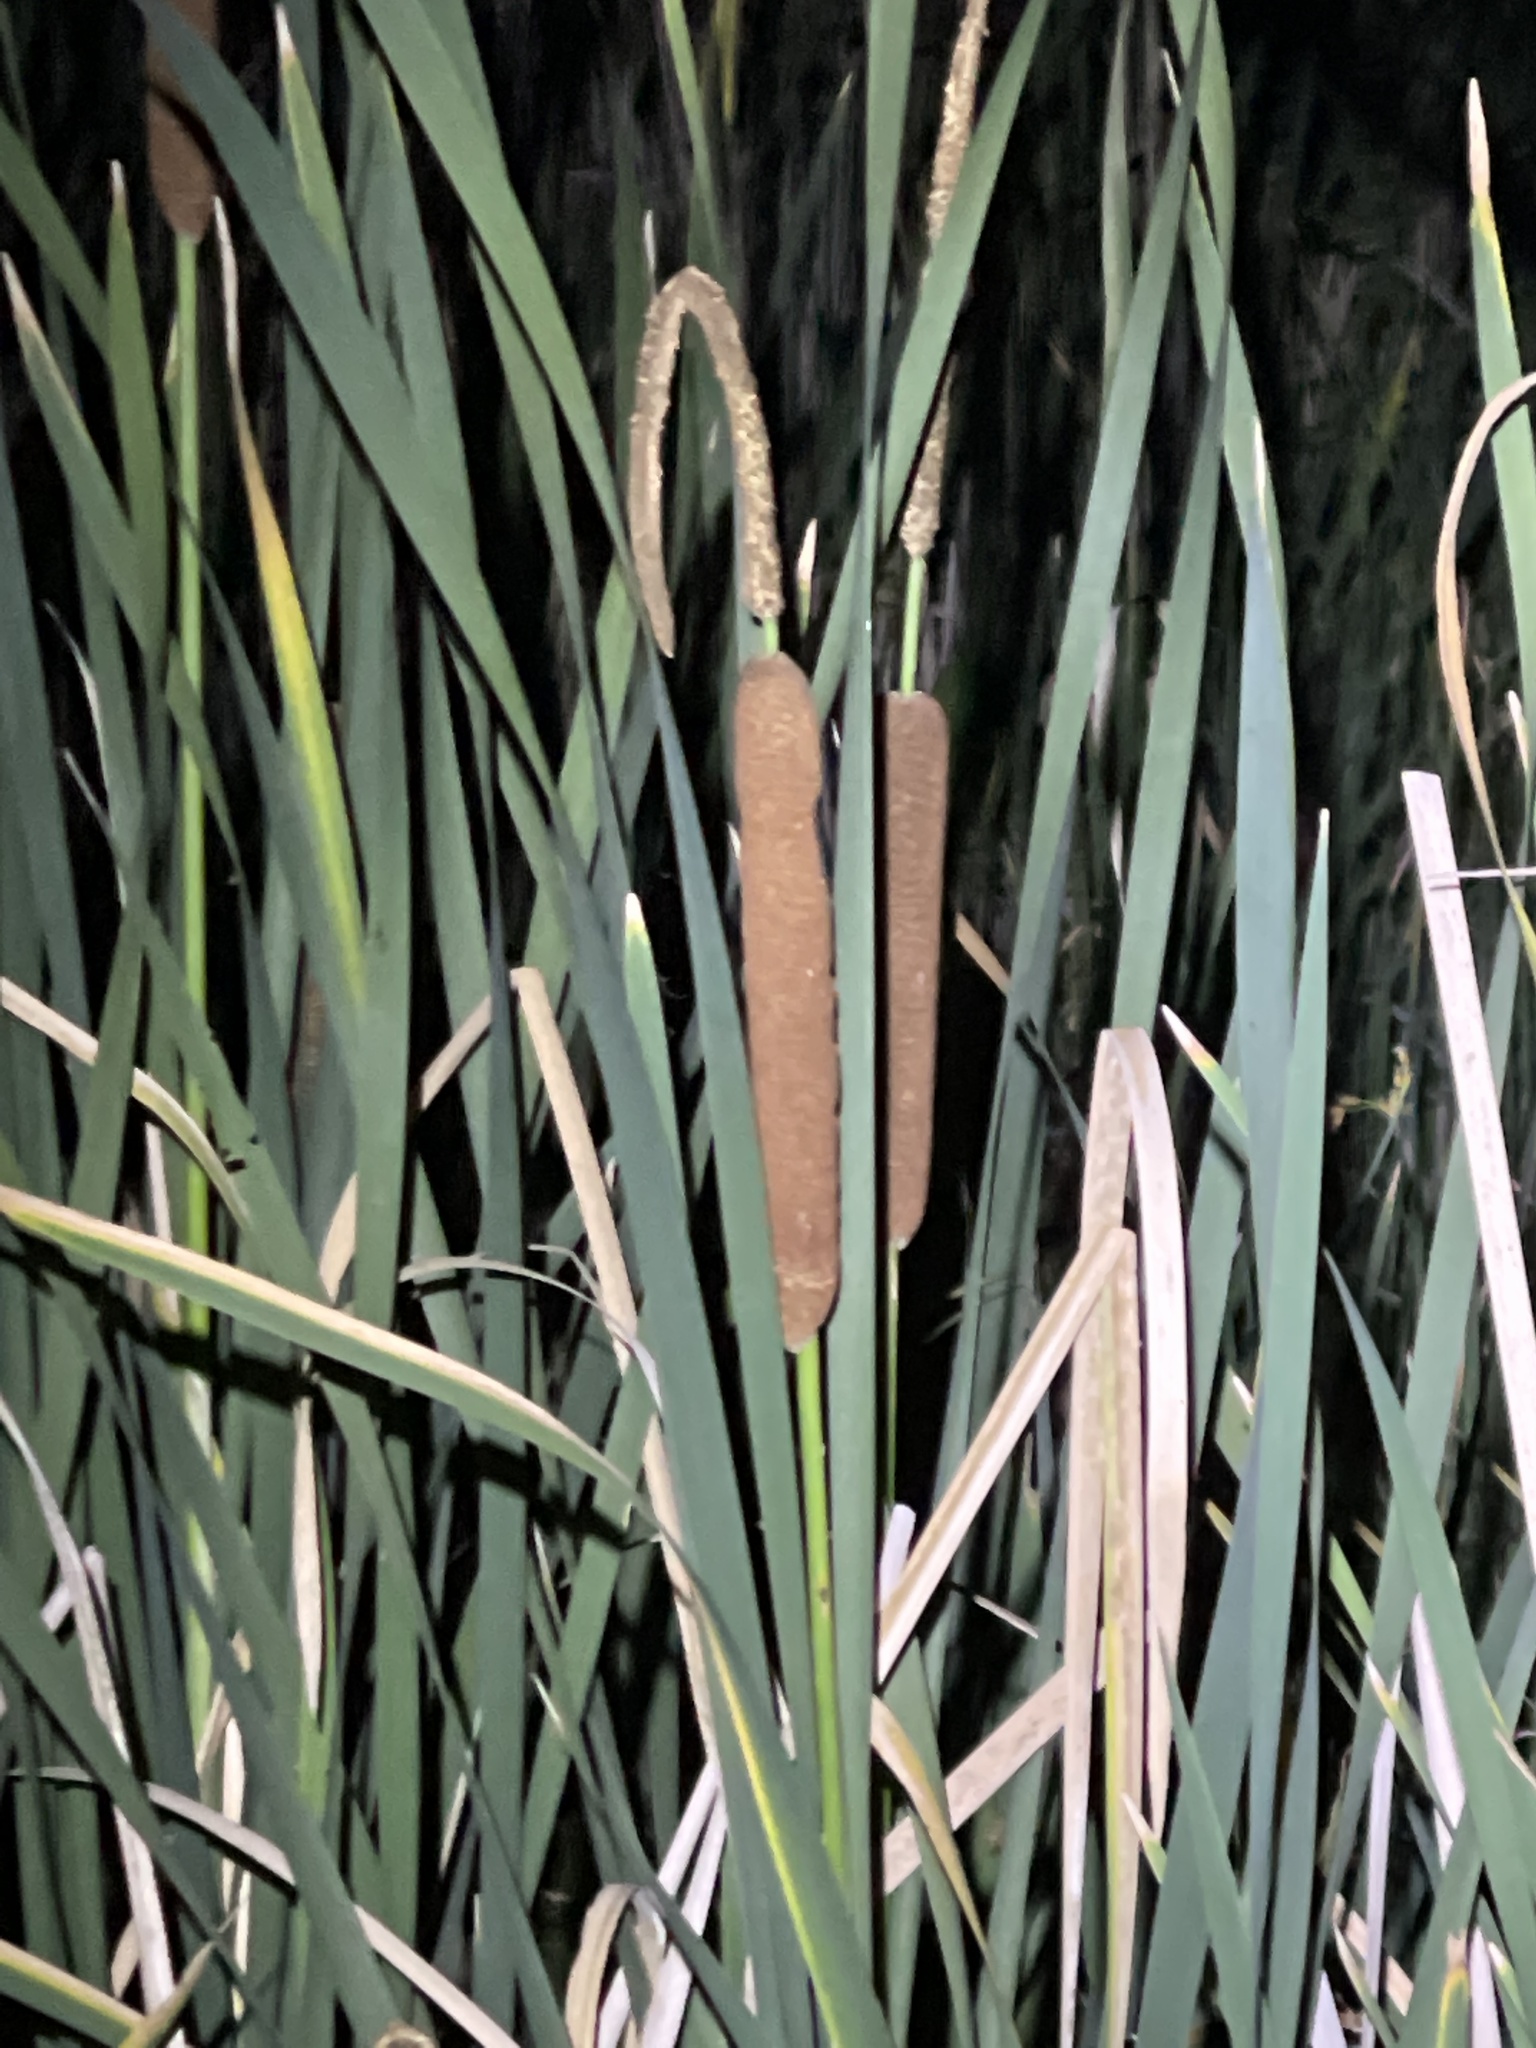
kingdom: Plantae
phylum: Tracheophyta
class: Liliopsida
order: Poales
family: Typhaceae
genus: Typha
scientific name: Typha glauca
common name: Blue cattail
